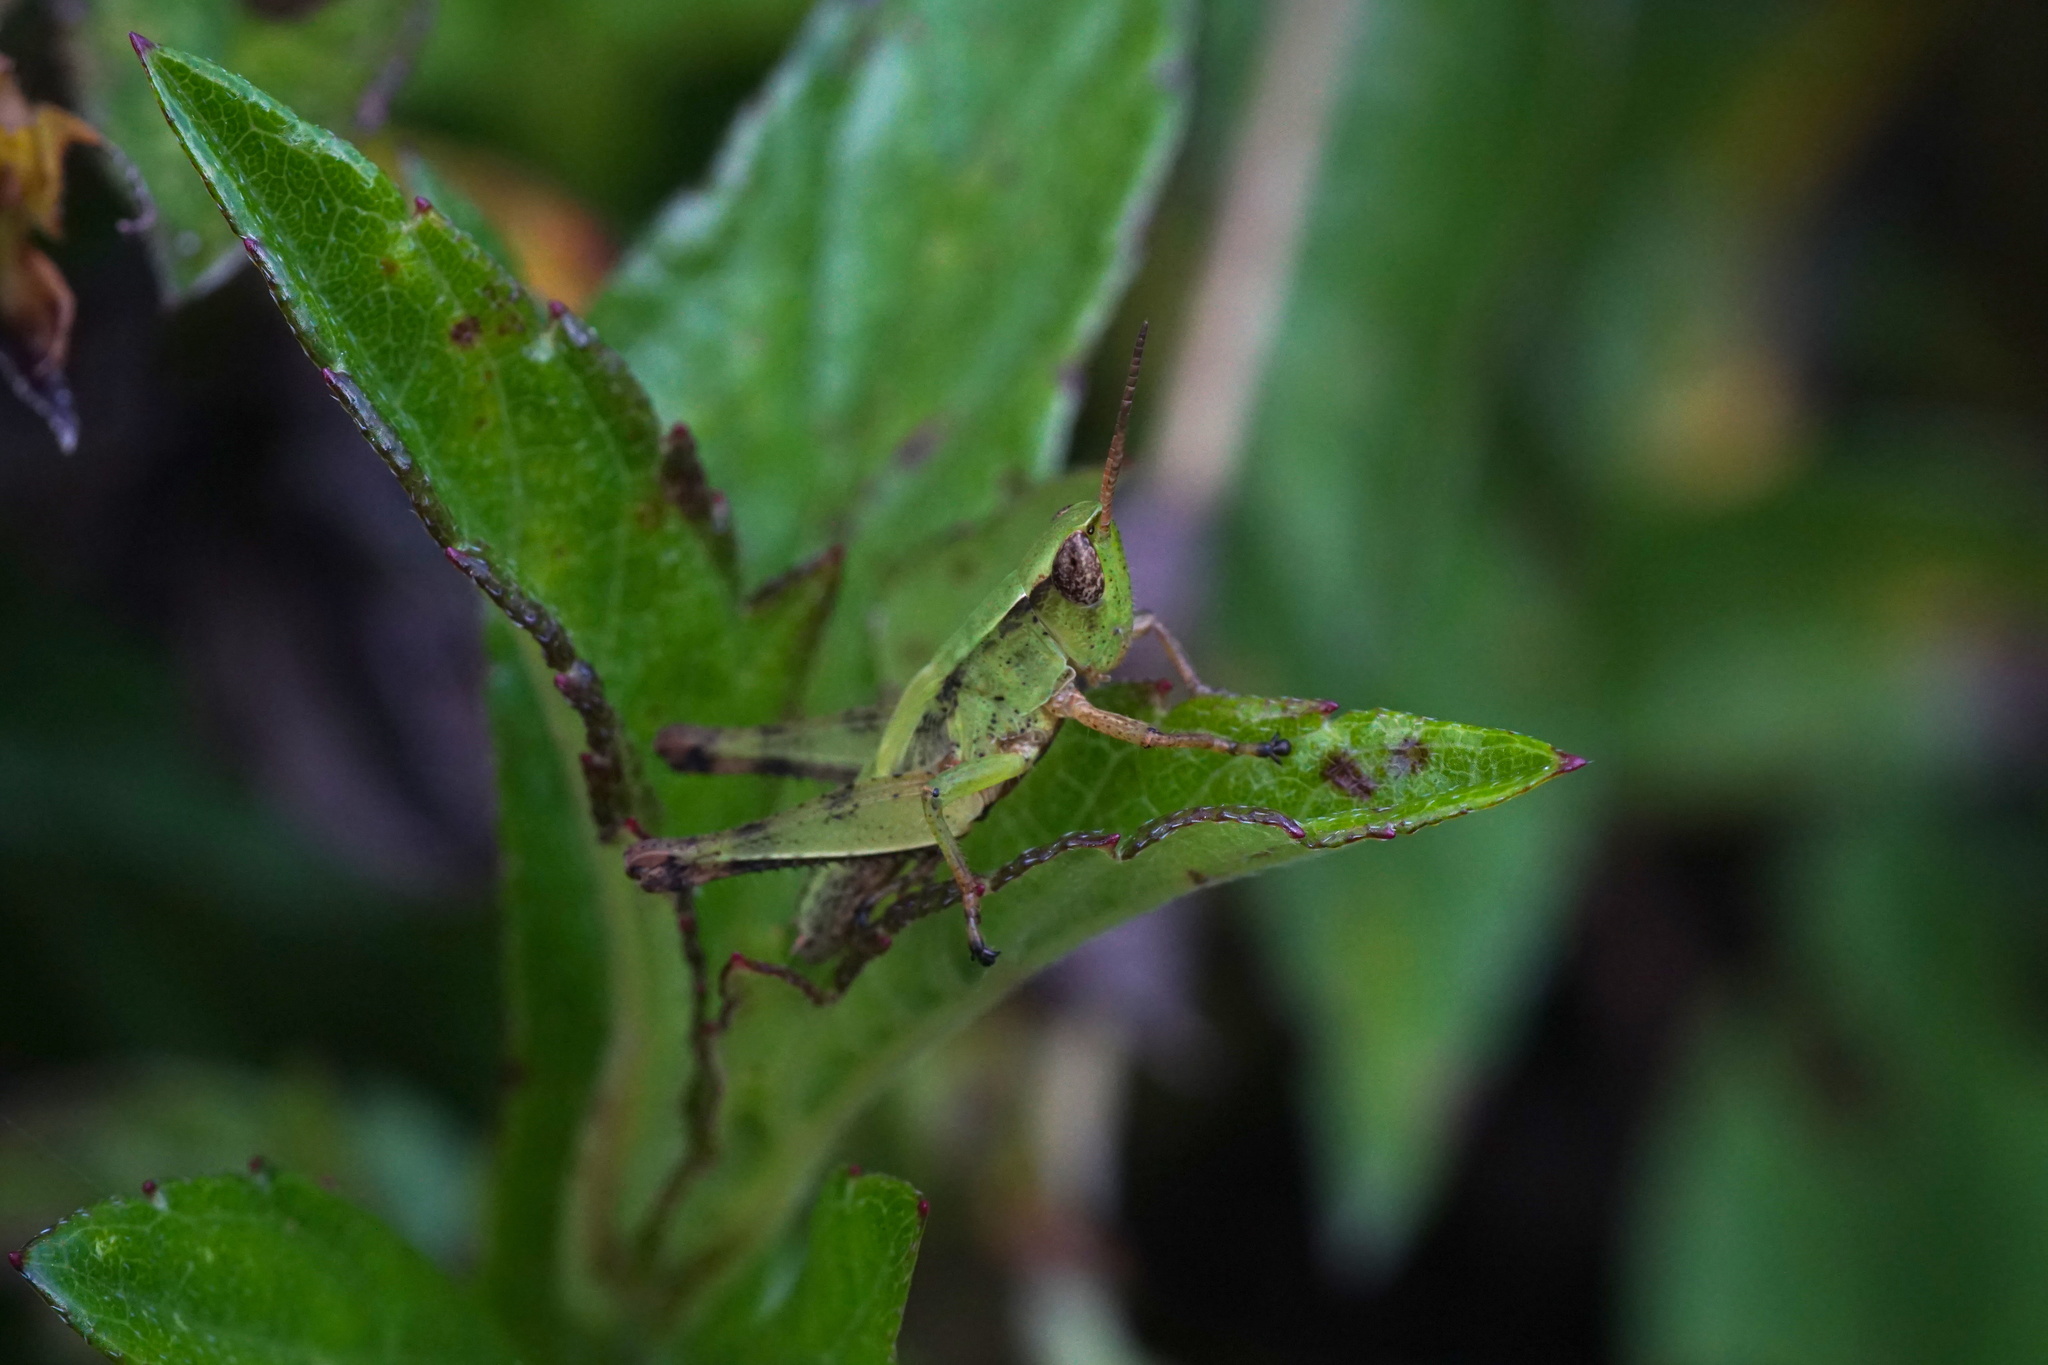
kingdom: Animalia
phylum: Arthropoda
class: Insecta
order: Orthoptera
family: Acrididae
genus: Dichromorpha
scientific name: Dichromorpha viridis
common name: Short-winged green grasshopper
